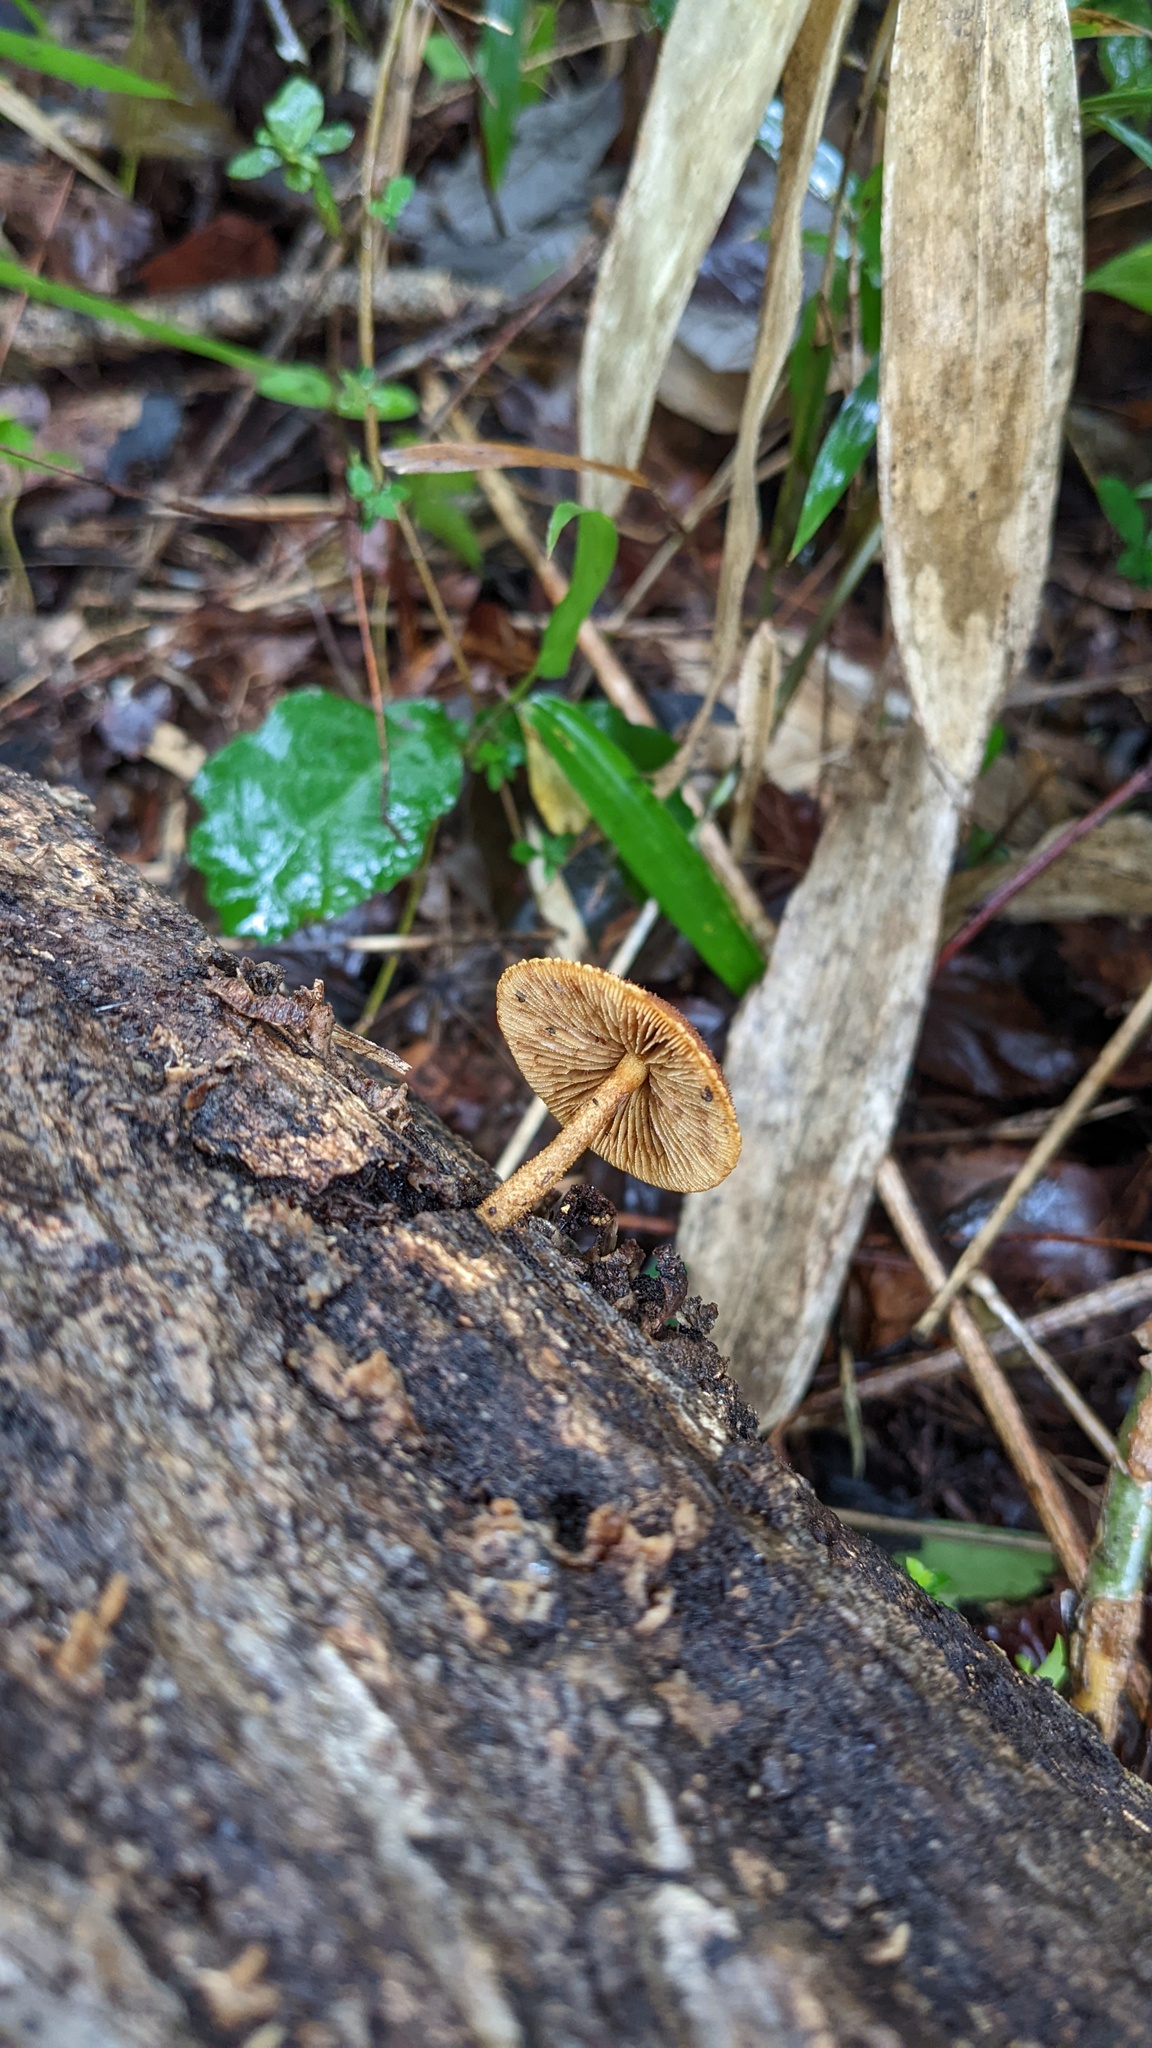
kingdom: Fungi
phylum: Basidiomycota
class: Agaricomycetes
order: Agaricales
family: Tubariaceae
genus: Flammulaster
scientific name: Flammulaster erinaceellus
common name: Powder-scale pholiota
